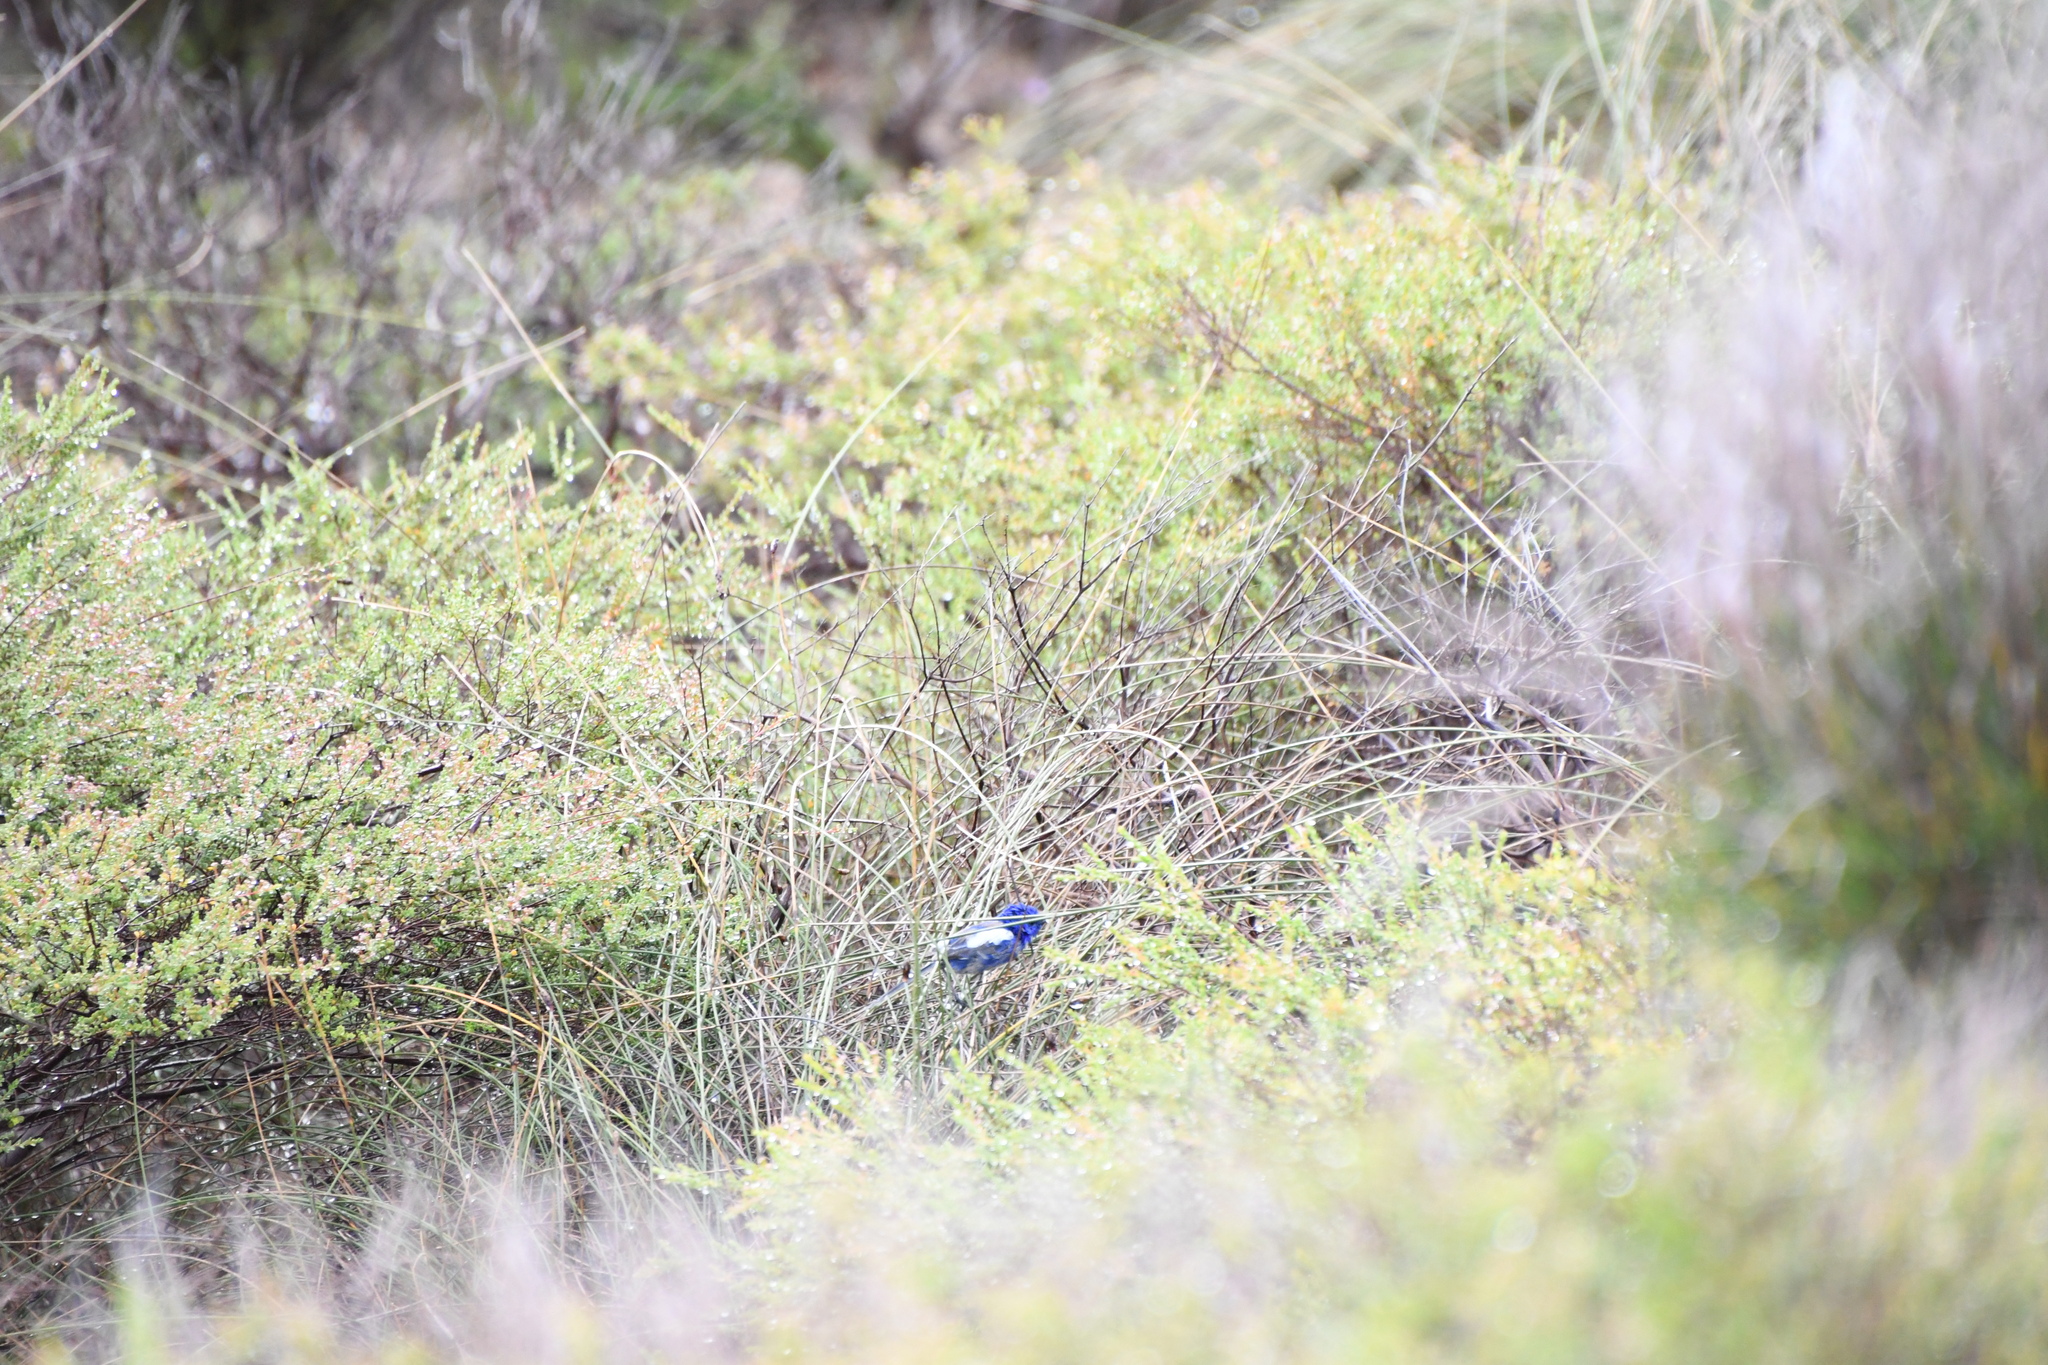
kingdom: Animalia
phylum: Chordata
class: Aves
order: Passeriformes
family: Maluridae
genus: Malurus
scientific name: Malurus leucopterus
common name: White-winged fairywren
